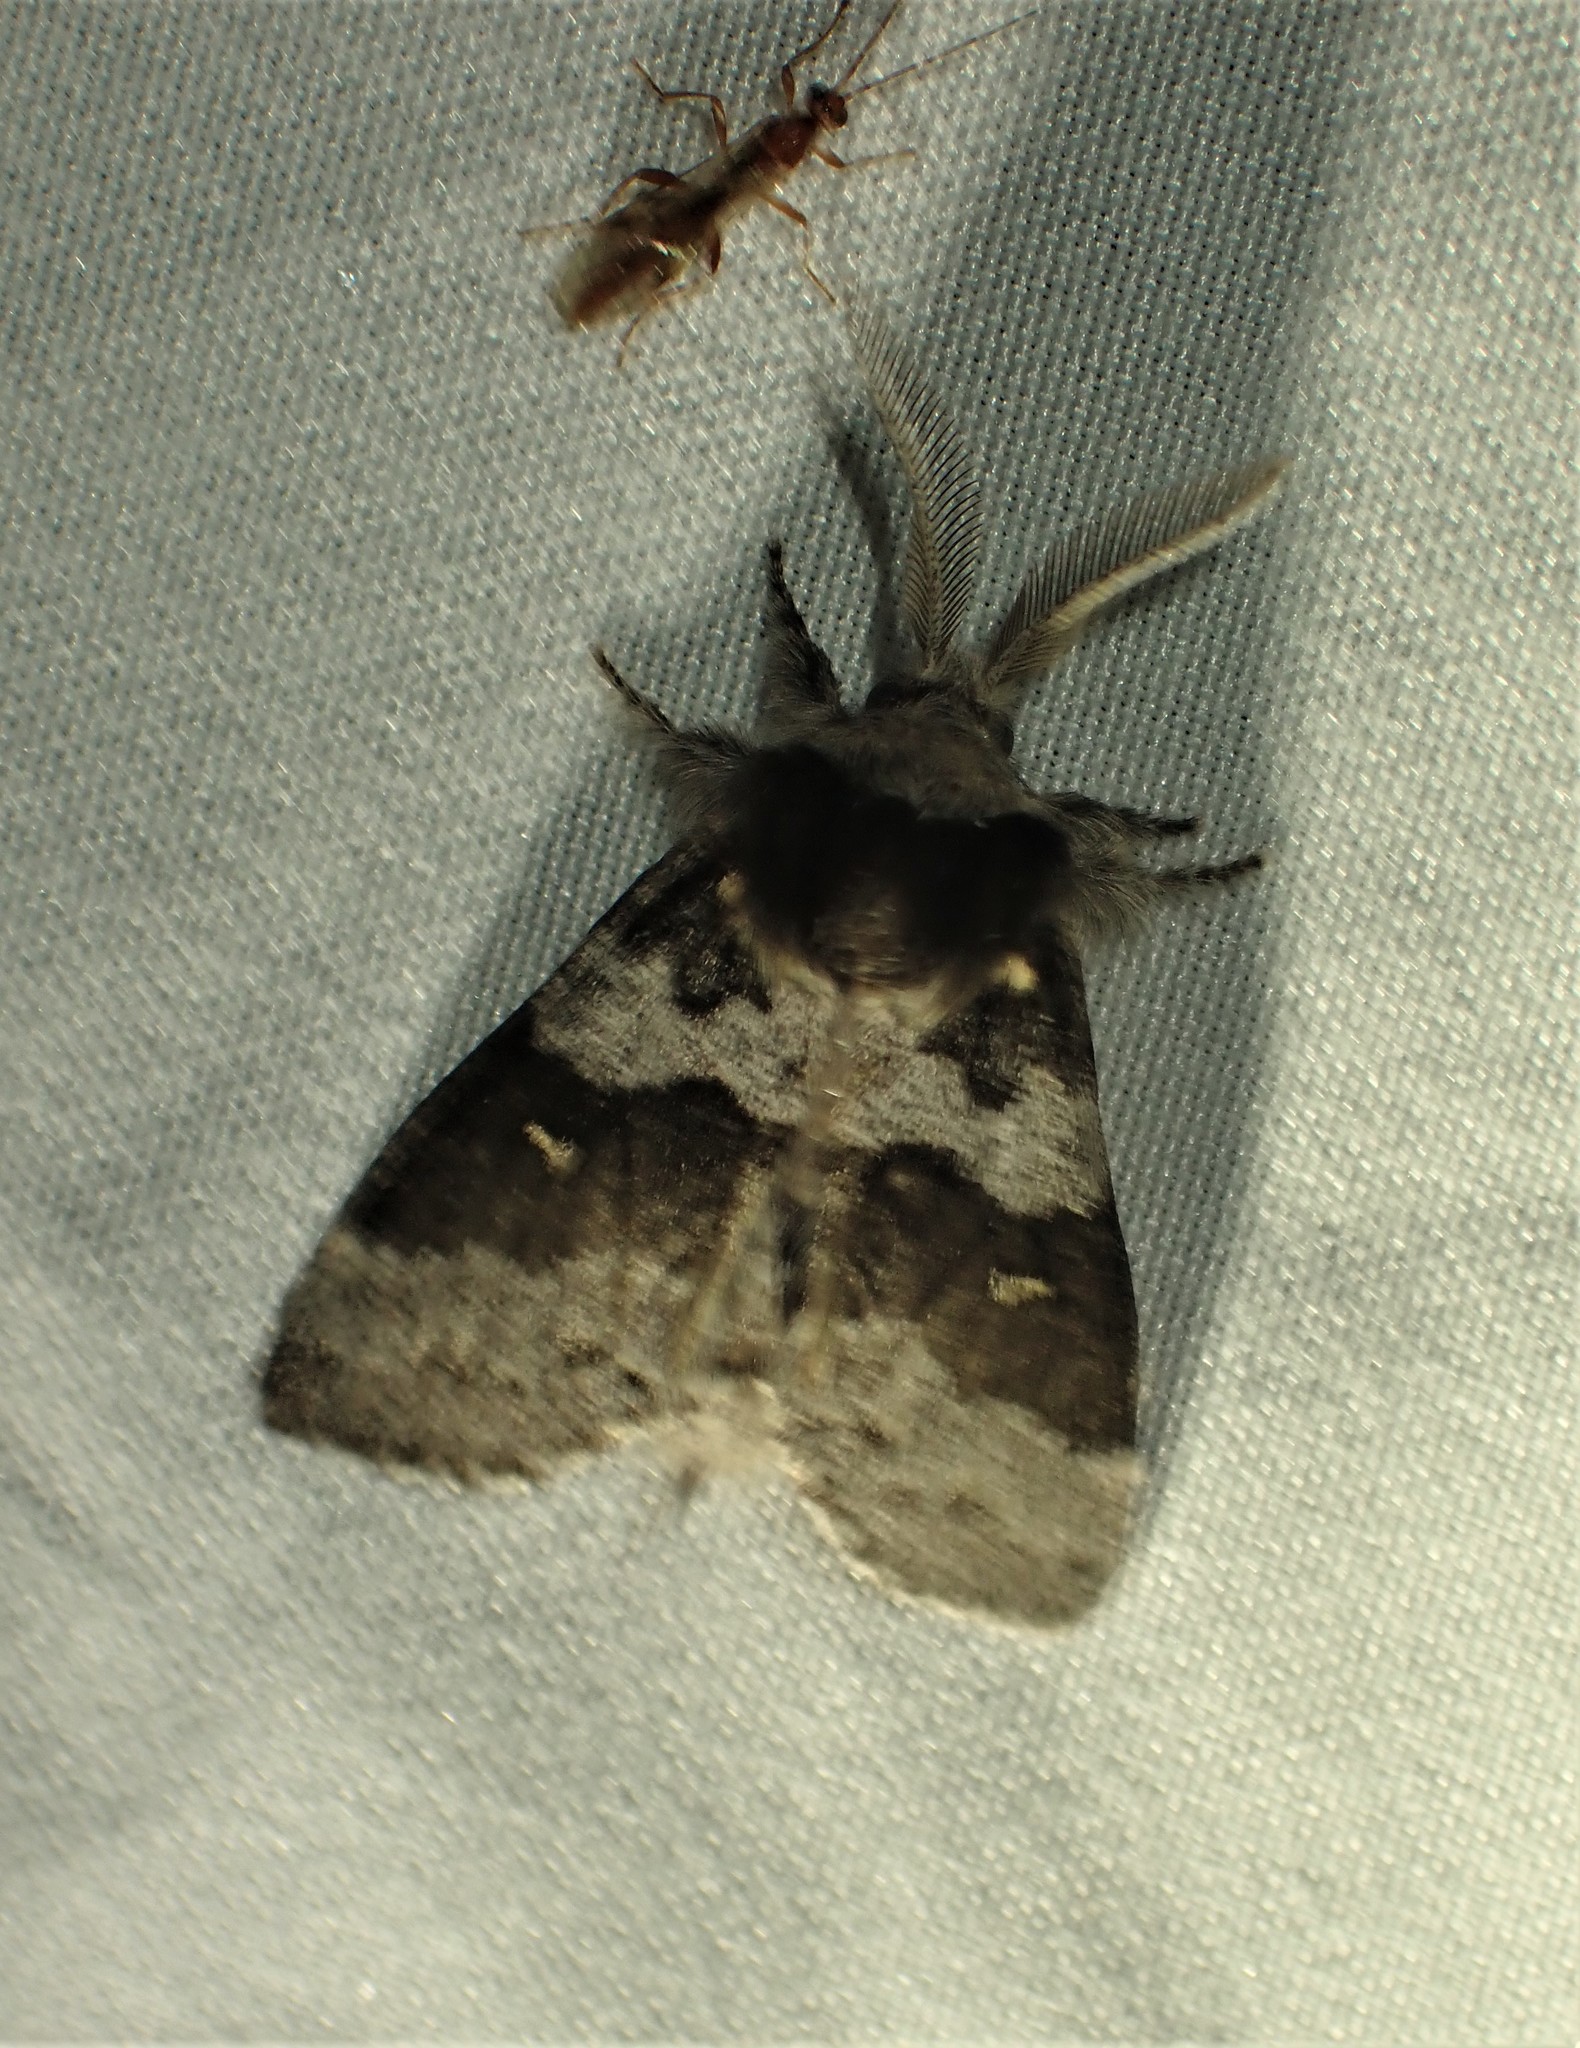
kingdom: Animalia
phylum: Arthropoda
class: Insecta
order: Lepidoptera
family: Notodontidae
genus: Gluphisia
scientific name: Gluphisia avimacula
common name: Four-spotted gluphisia moth
